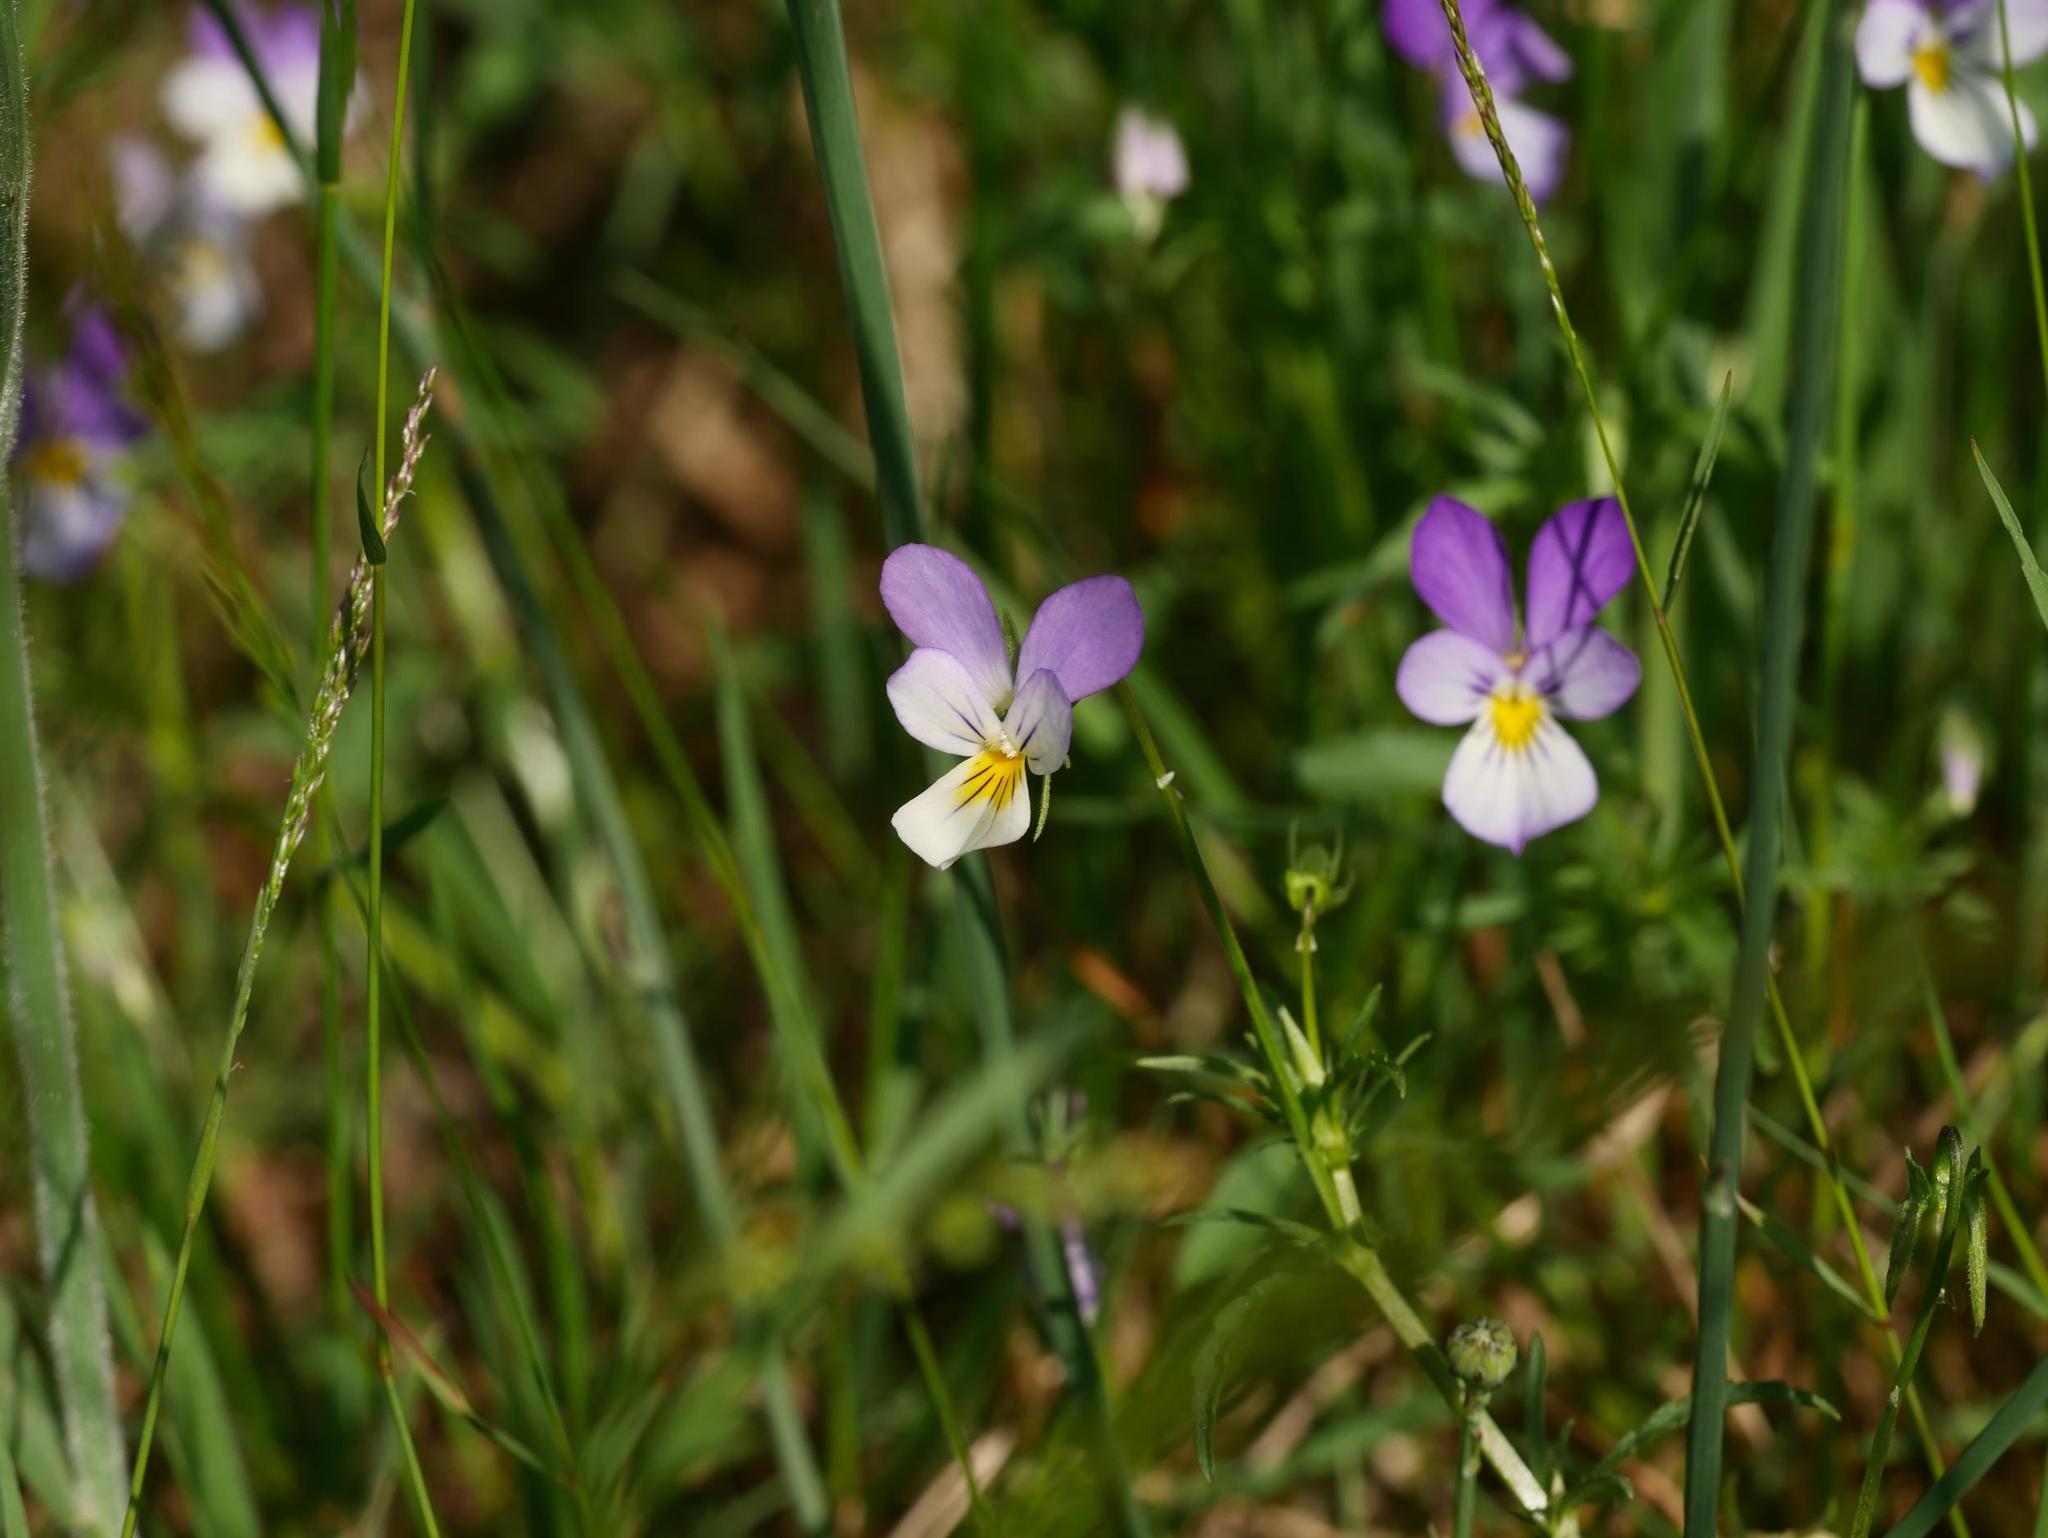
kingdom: Plantae
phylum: Tracheophyta
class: Magnoliopsida
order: Malpighiales
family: Violaceae
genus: Viola
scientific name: Viola tricolor
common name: Pansy
